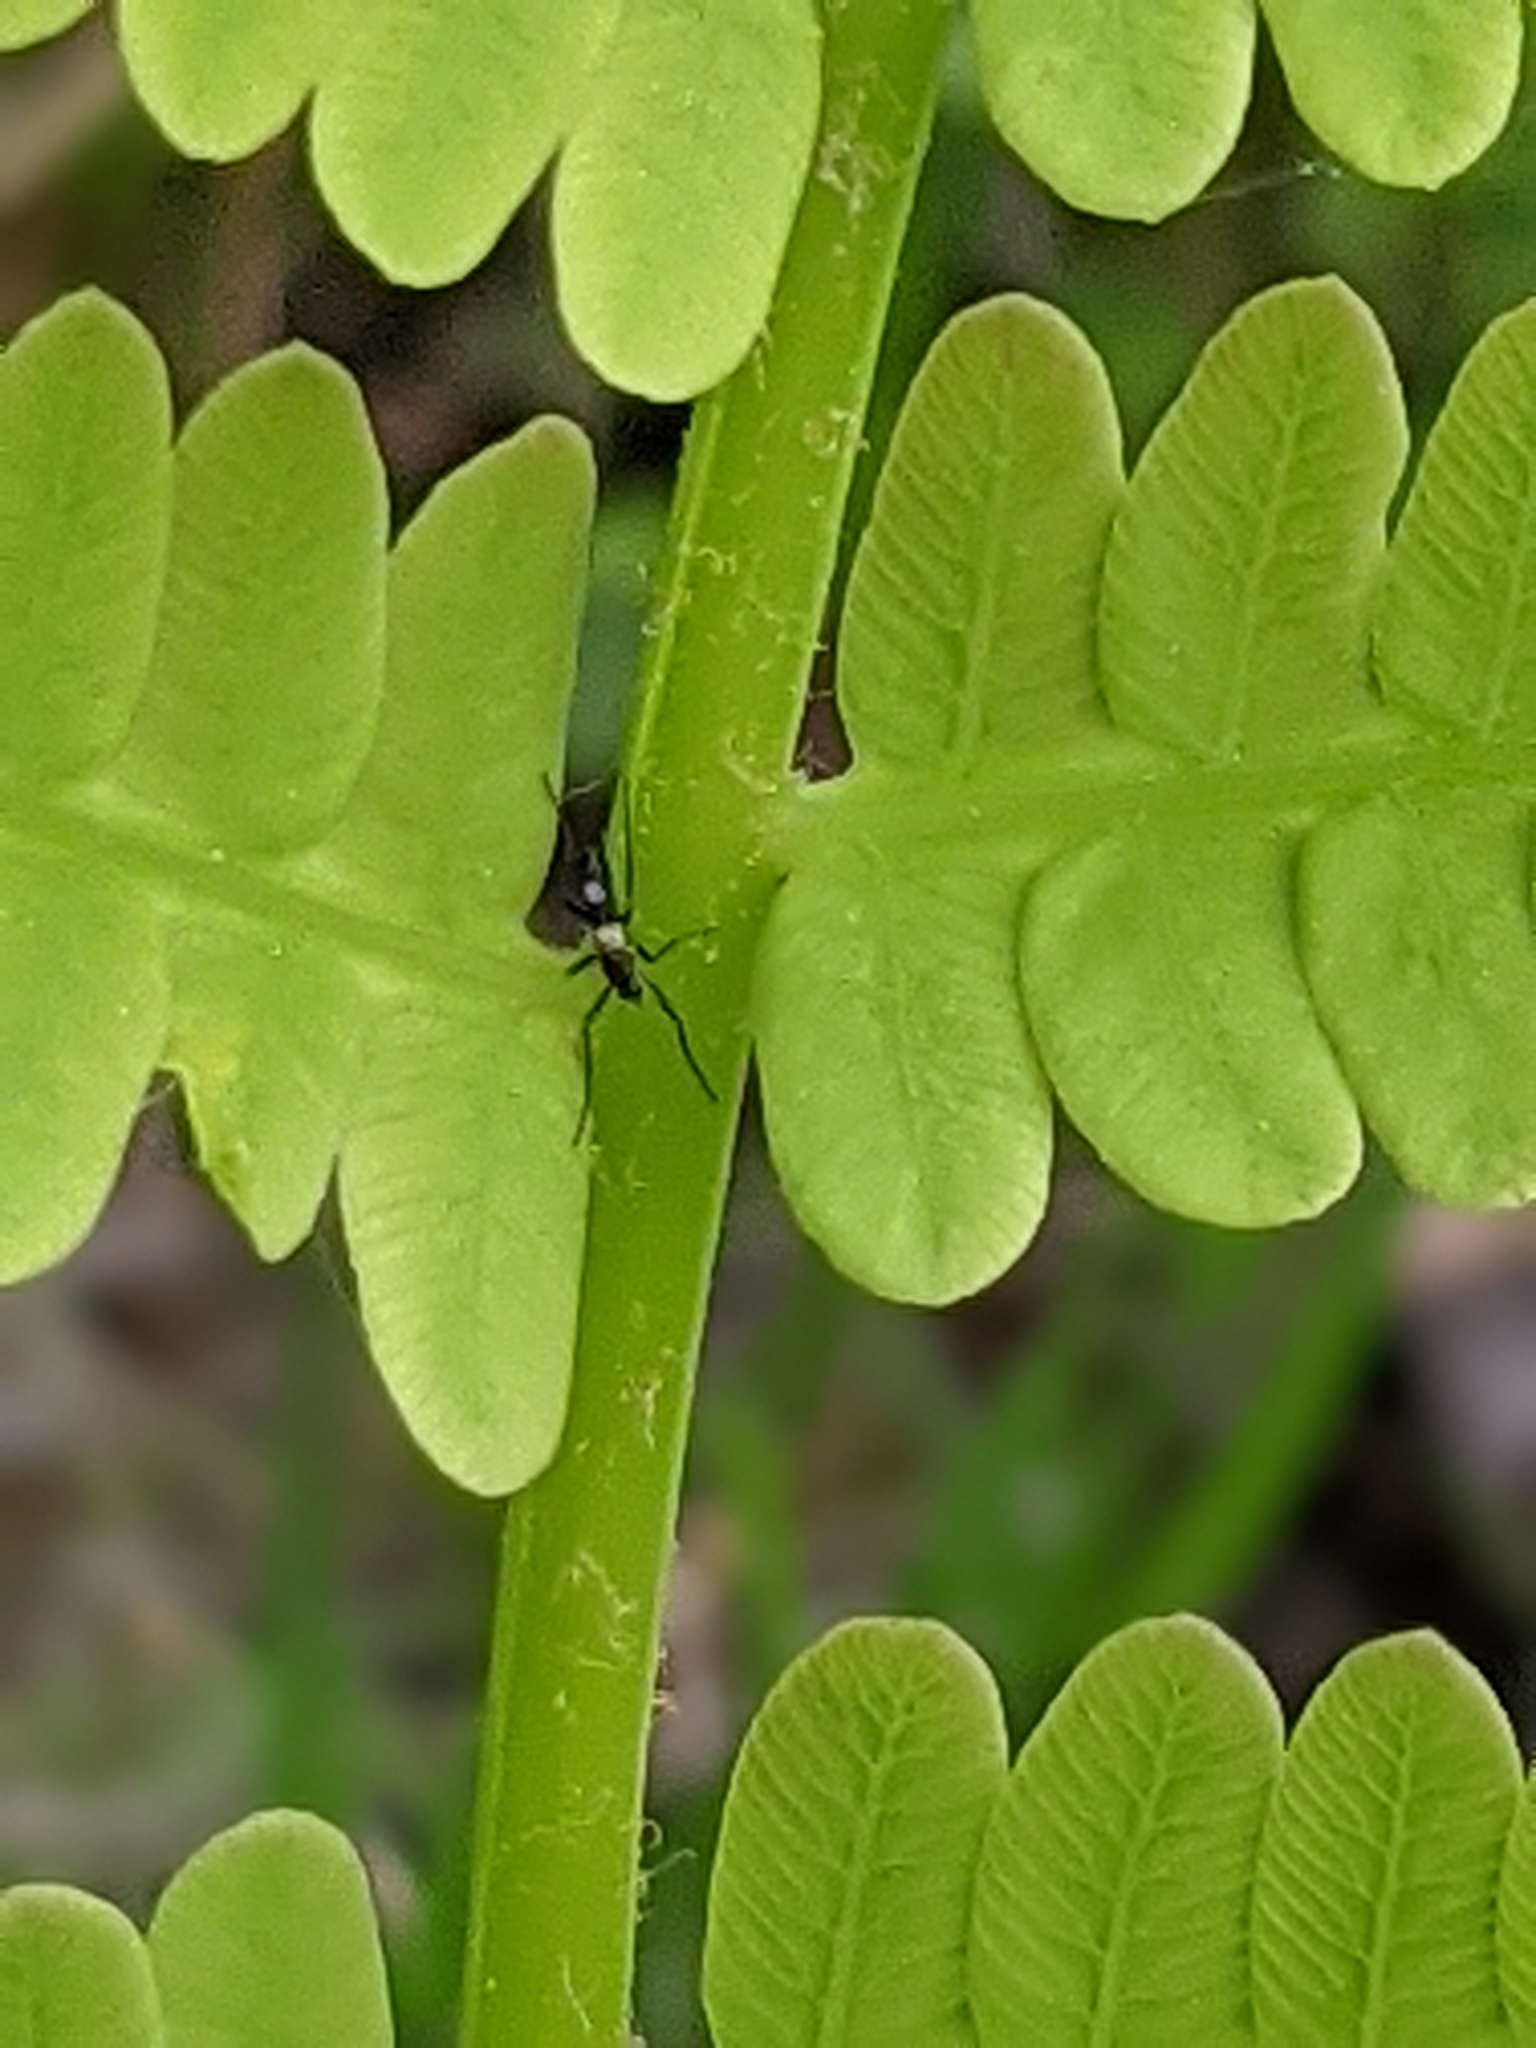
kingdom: Plantae
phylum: Tracheophyta
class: Polypodiopsida
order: Osmundales
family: Osmundaceae
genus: Claytosmunda
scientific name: Claytosmunda claytoniana
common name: Clayton's fern
